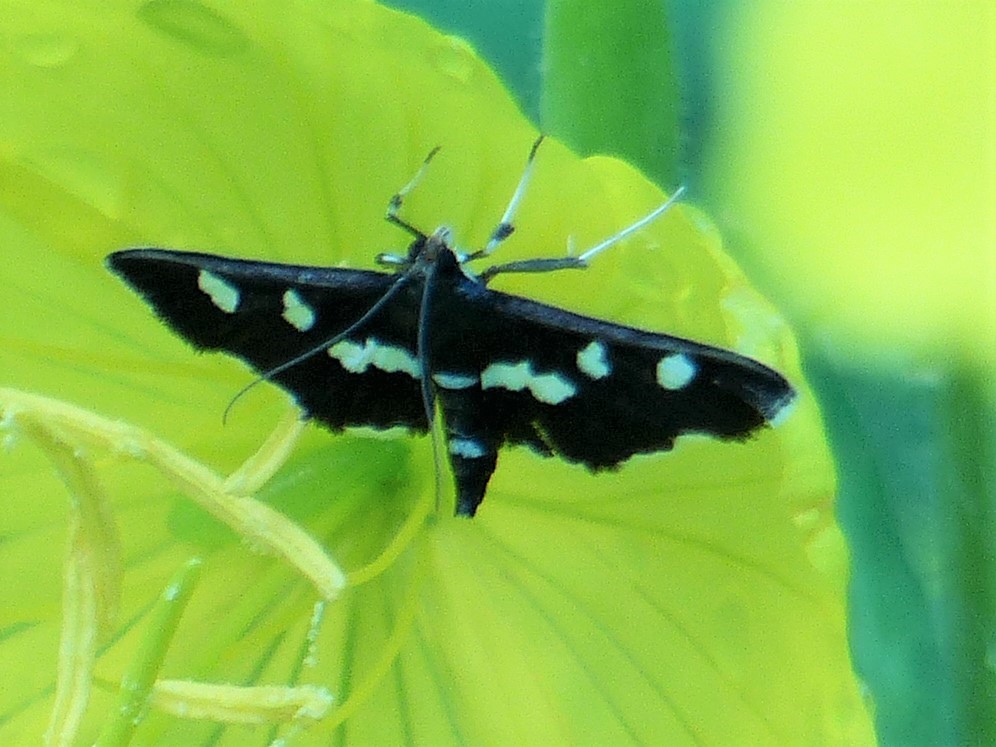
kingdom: Animalia
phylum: Arthropoda
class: Insecta
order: Lepidoptera
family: Crambidae
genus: Desmia
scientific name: Desmia
